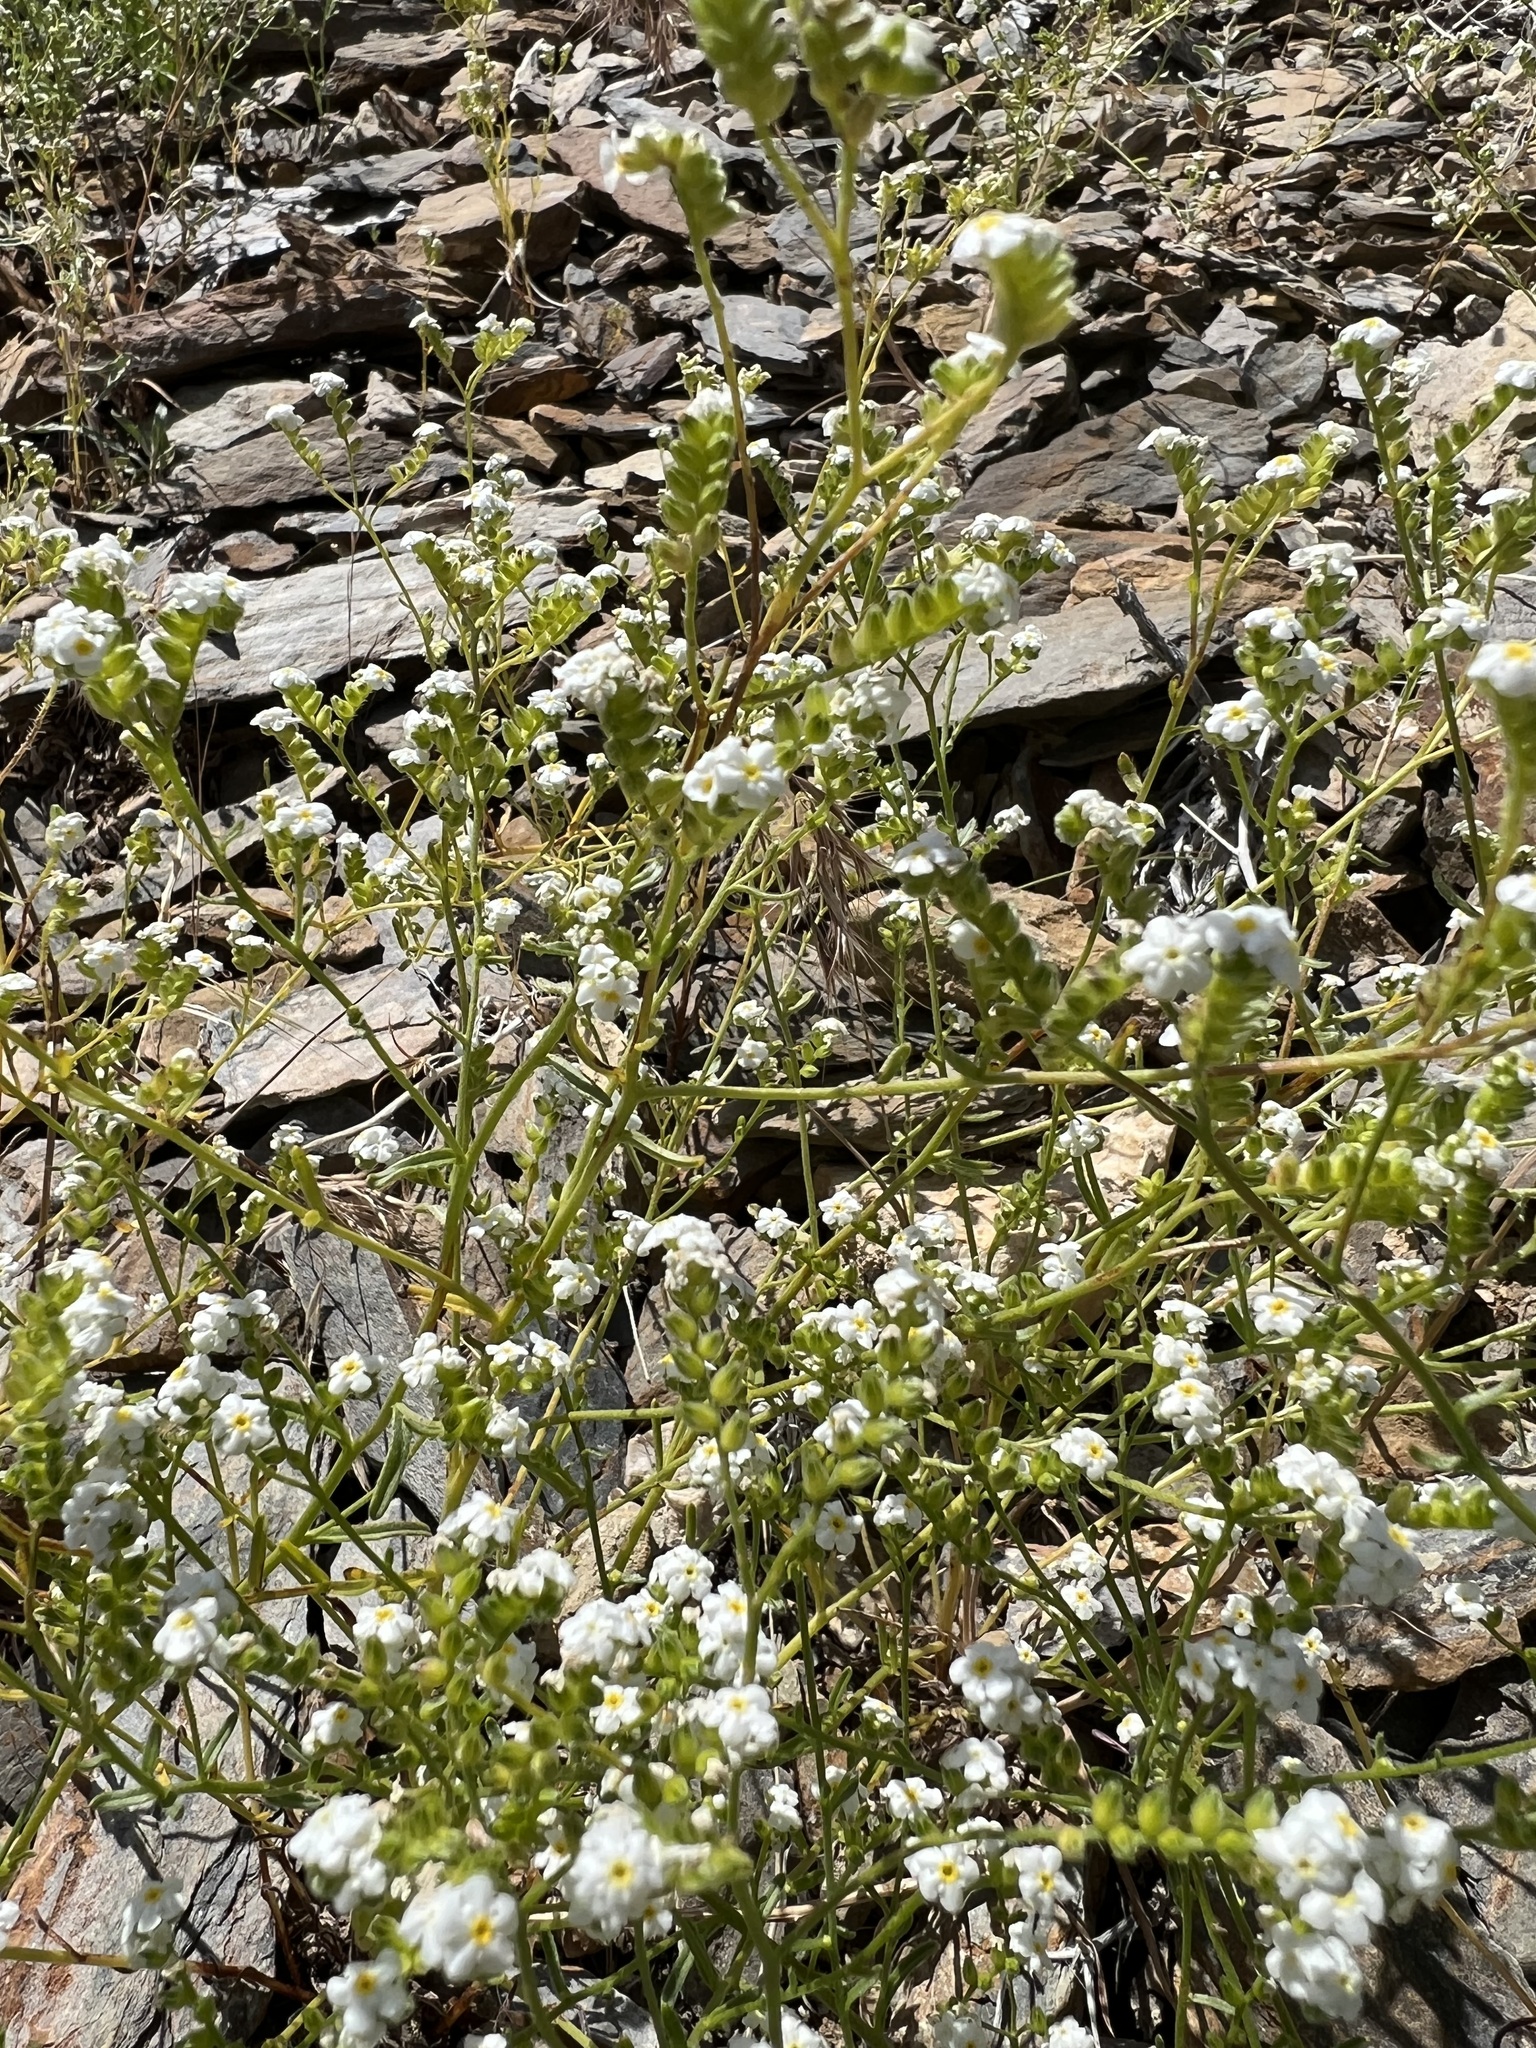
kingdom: Plantae
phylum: Tracheophyta
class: Magnoliopsida
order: Boraginales
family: Boraginaceae
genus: Cryptantha
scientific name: Cryptantha utahensis
